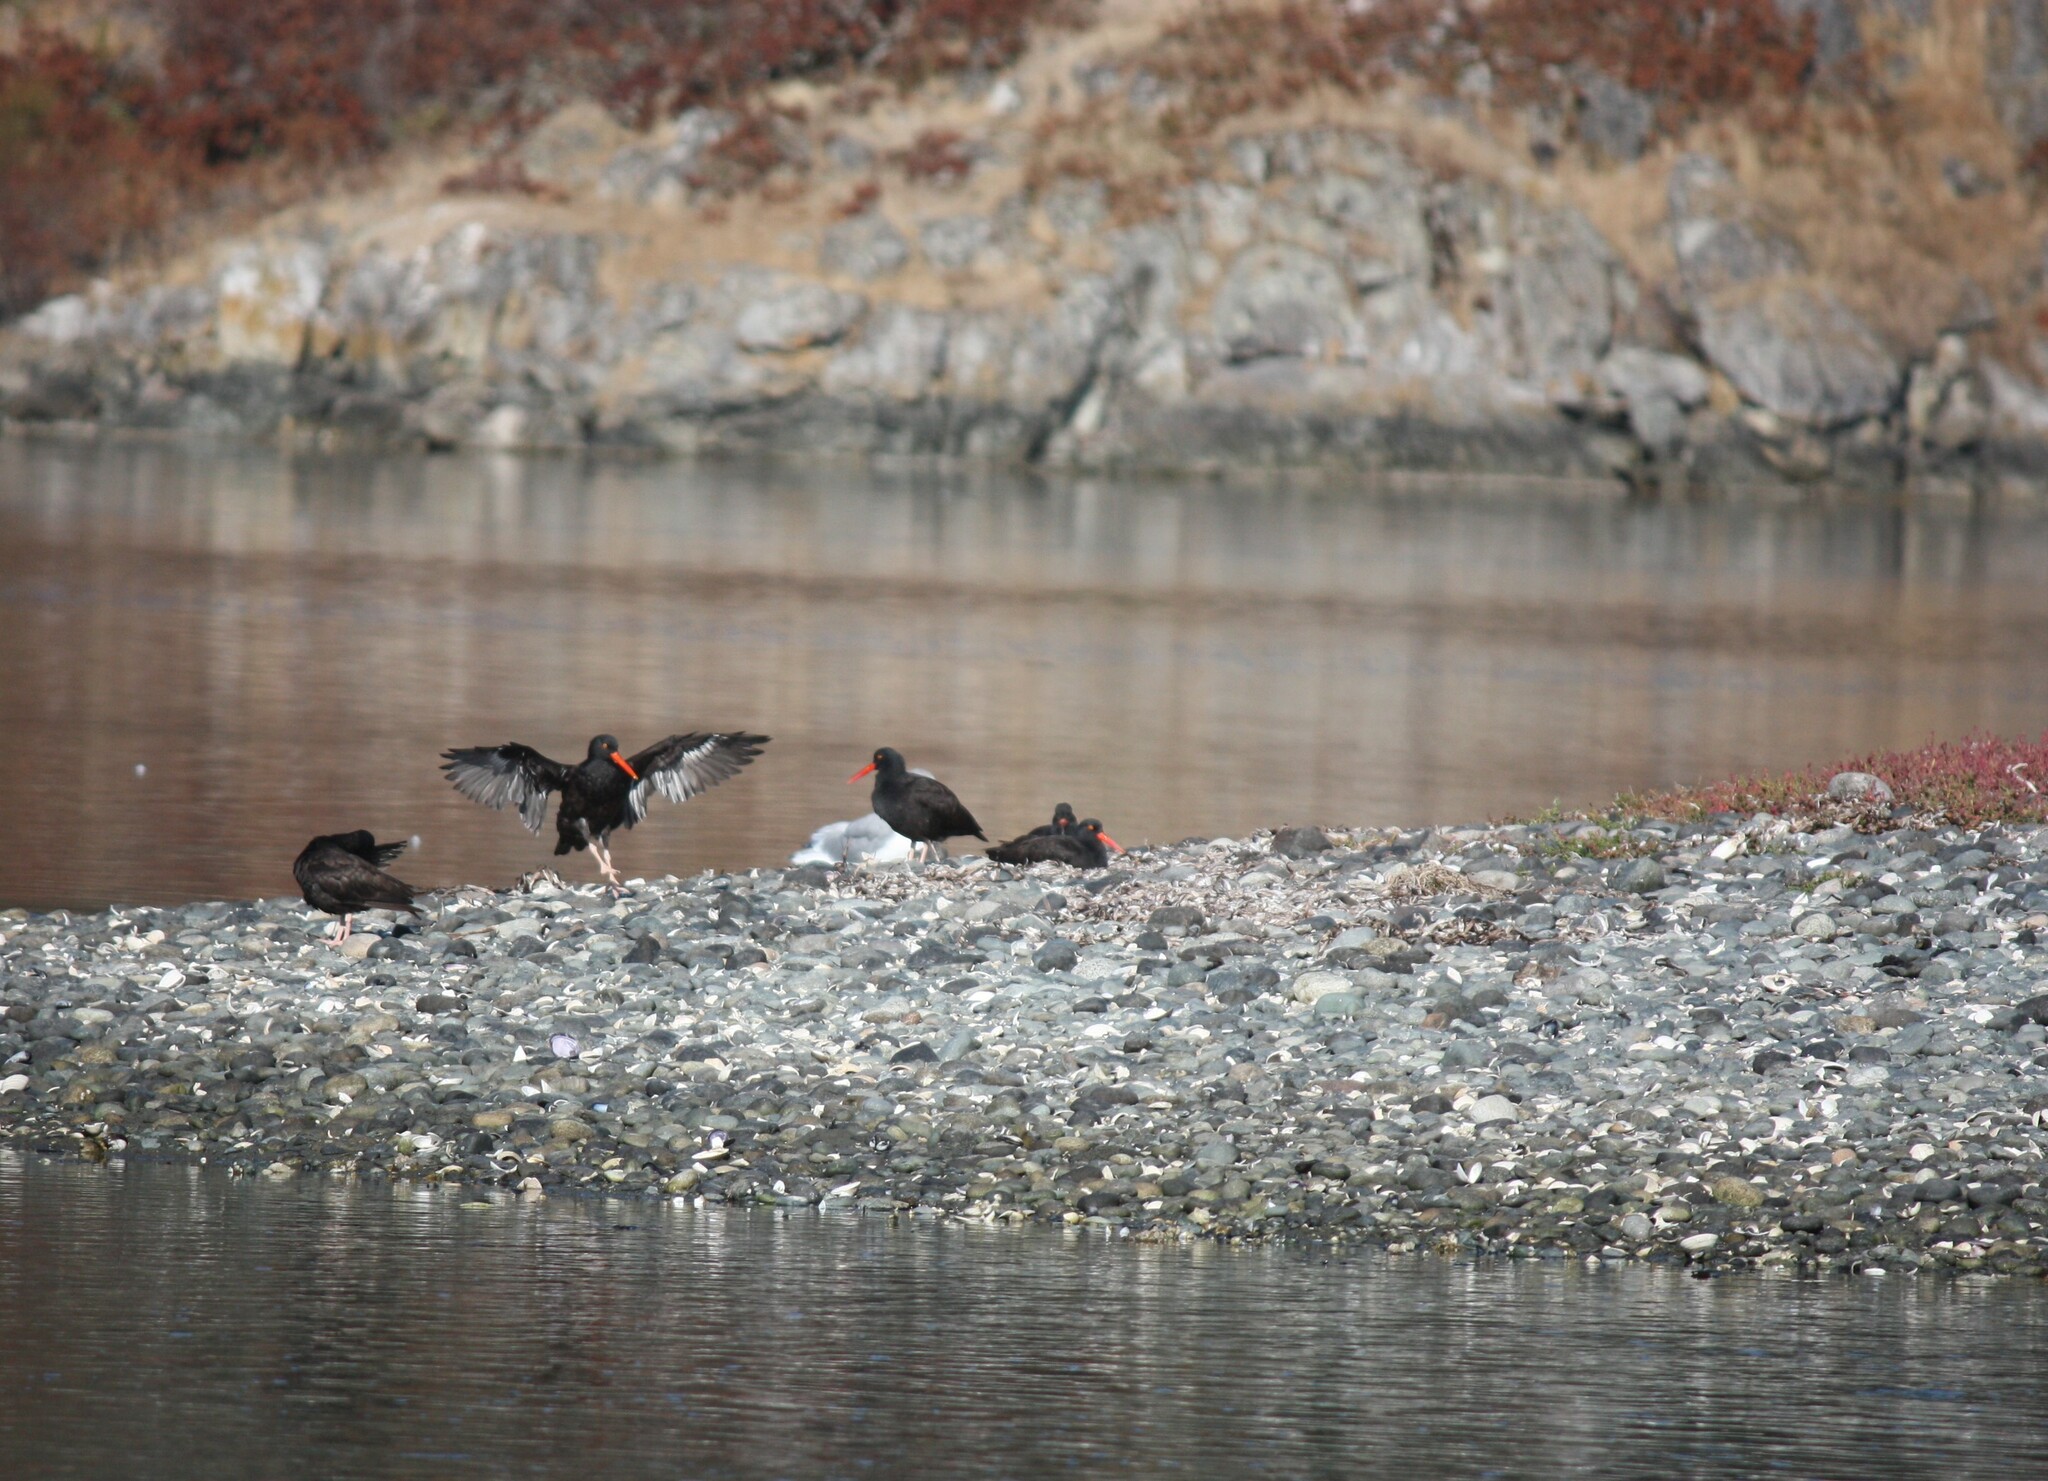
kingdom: Animalia
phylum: Chordata
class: Aves
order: Charadriiformes
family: Haematopodidae
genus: Haematopus
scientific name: Haematopus bachmani
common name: Black oystercatcher
